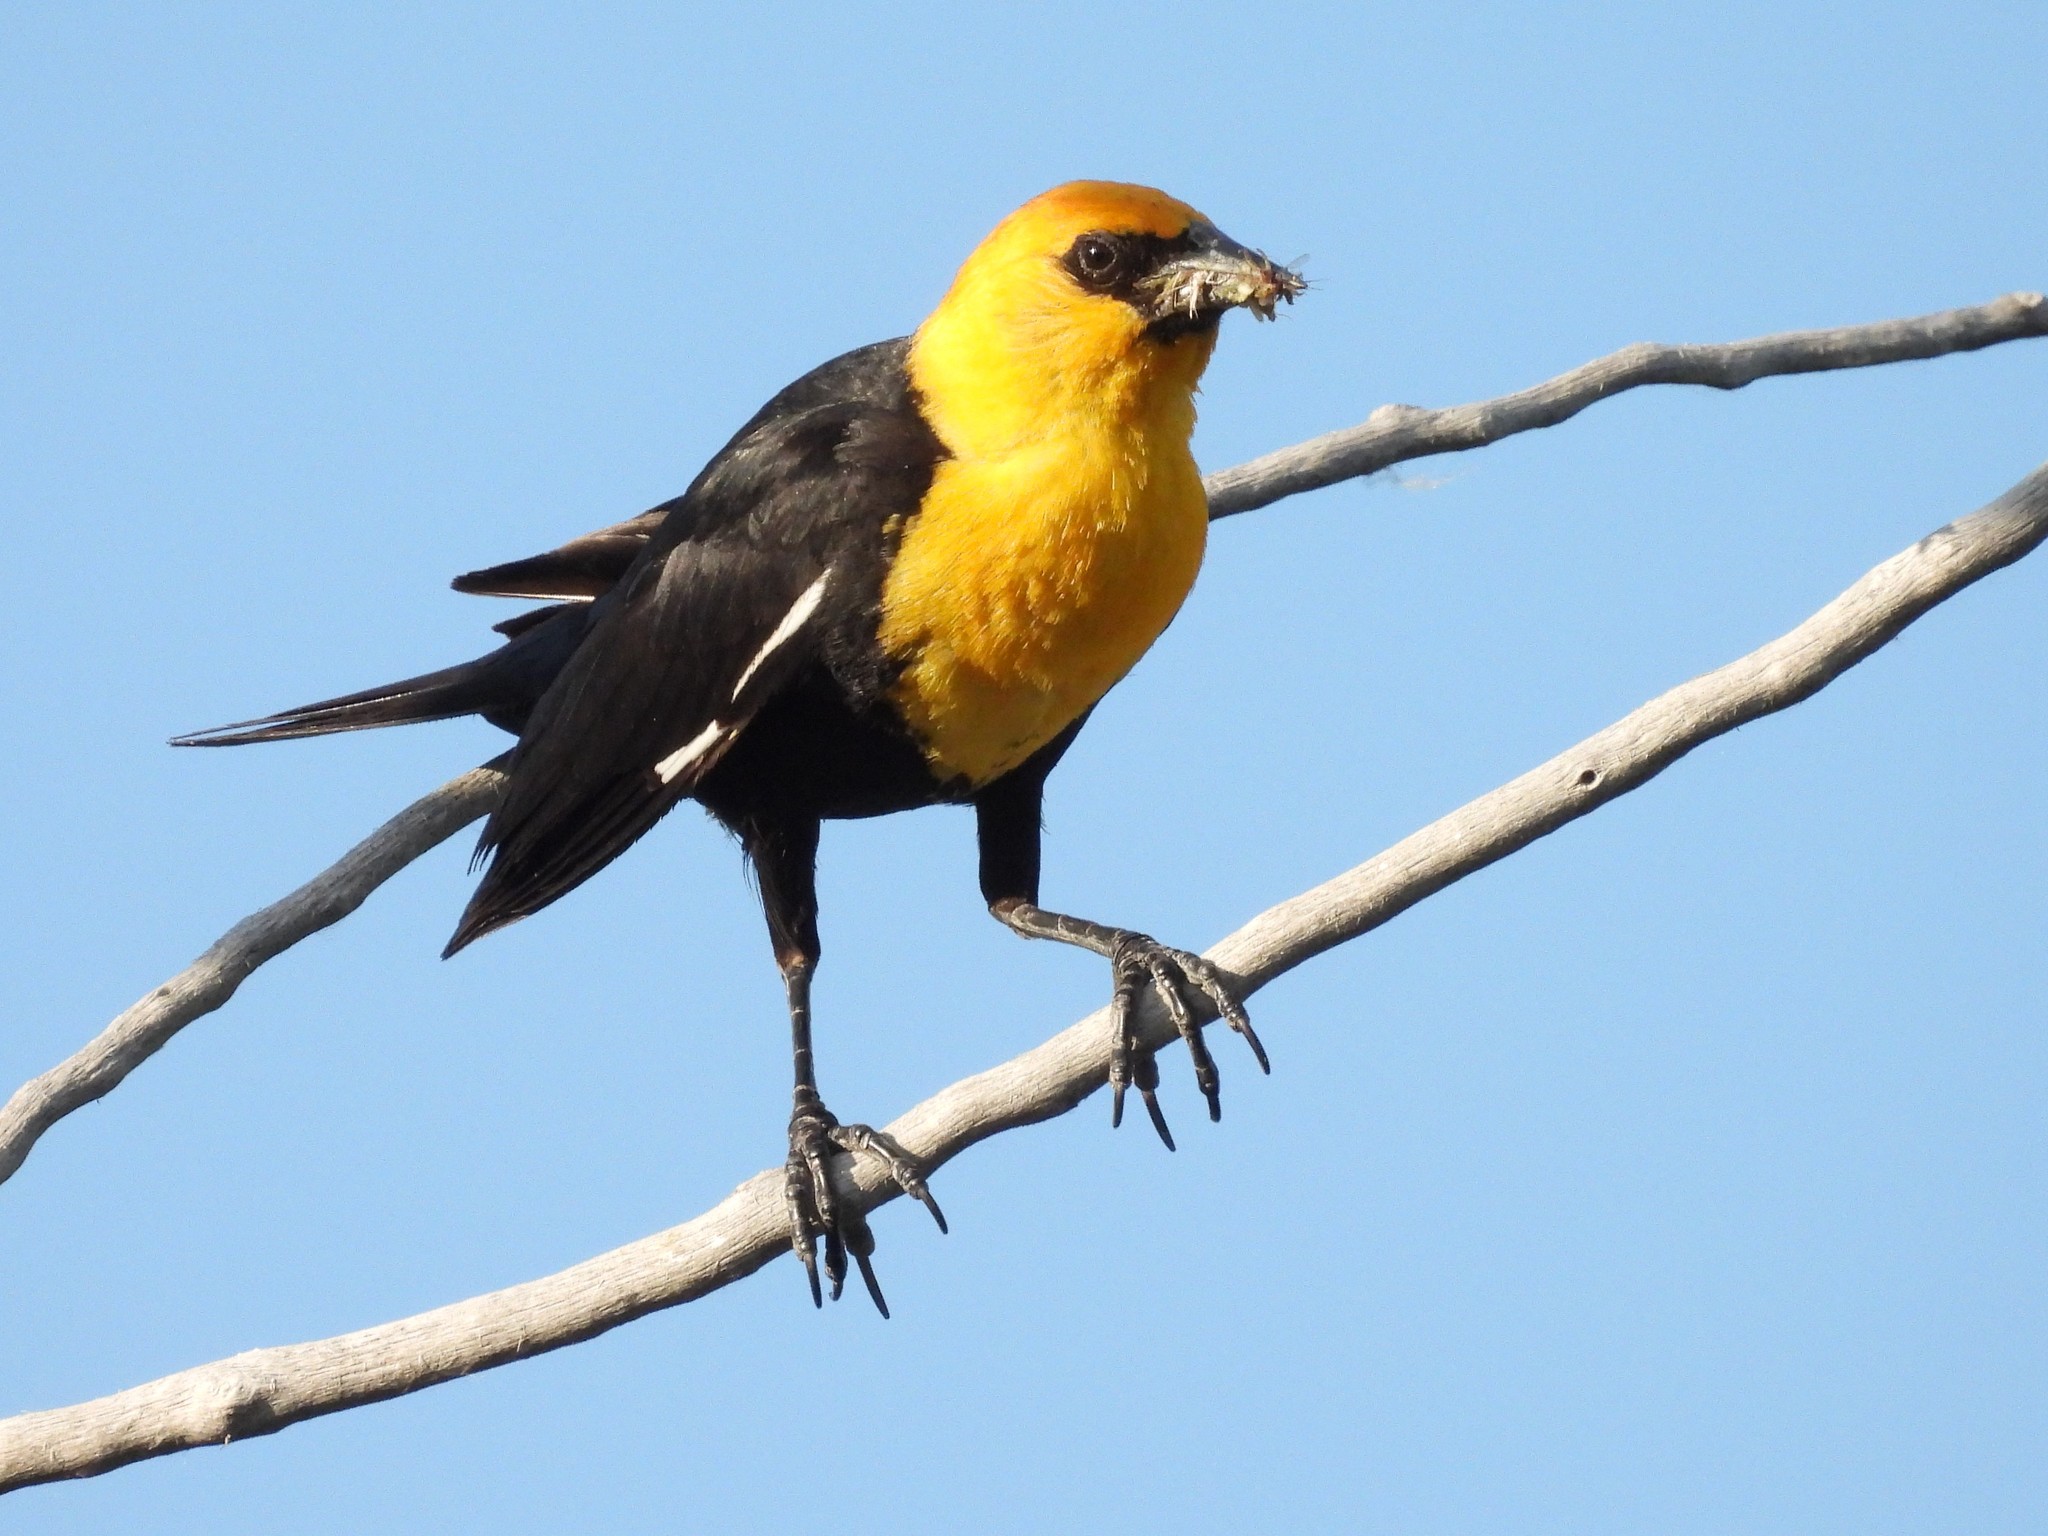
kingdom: Animalia
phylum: Chordata
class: Aves
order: Passeriformes
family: Icteridae
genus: Xanthocephalus
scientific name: Xanthocephalus xanthocephalus
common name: Yellow-headed blackbird
